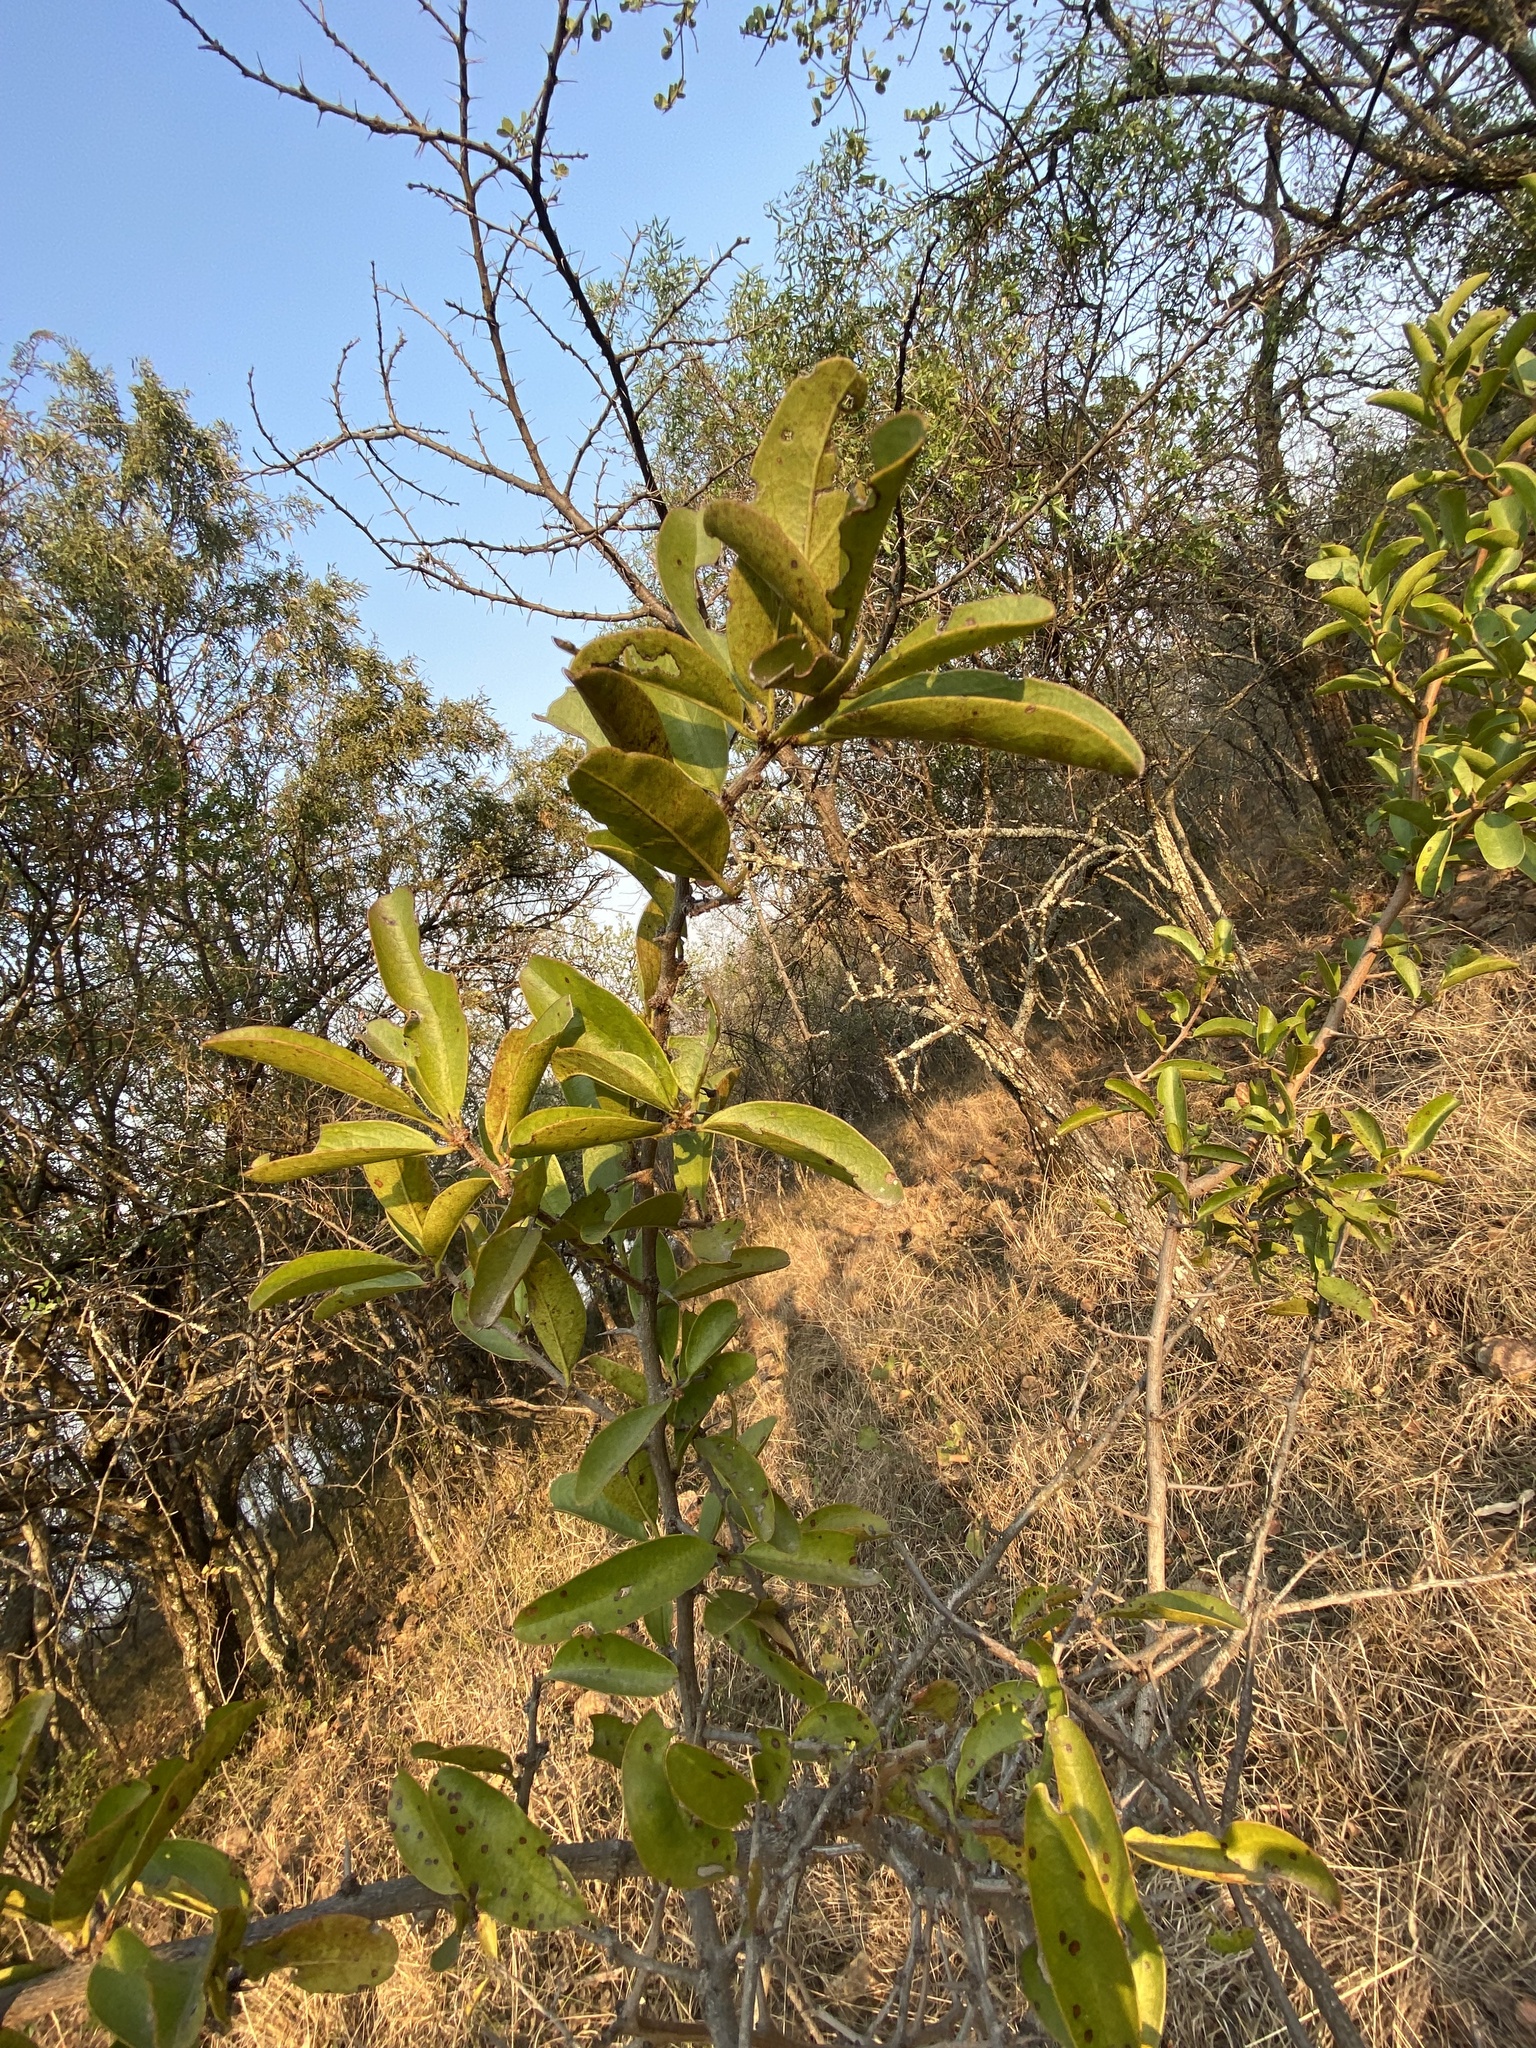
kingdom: Plantae
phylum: Tracheophyta
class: Magnoliopsida
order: Santalales
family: Ximeniaceae
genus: Ximenia
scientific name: Ximenia caffra
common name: Large sourplum
